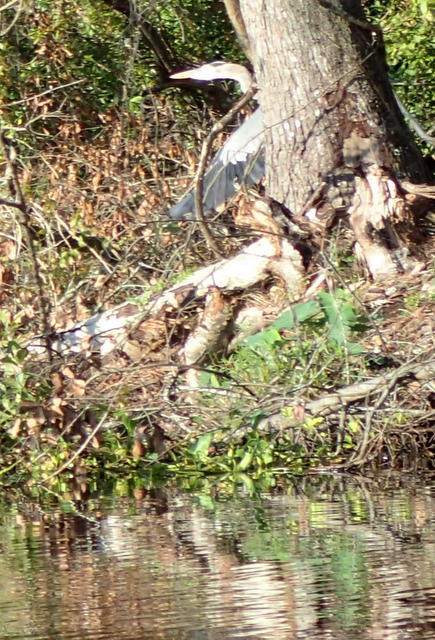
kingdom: Animalia
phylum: Chordata
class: Aves
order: Pelecaniformes
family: Ardeidae
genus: Ardea
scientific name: Ardea herodias
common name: Great blue heron
